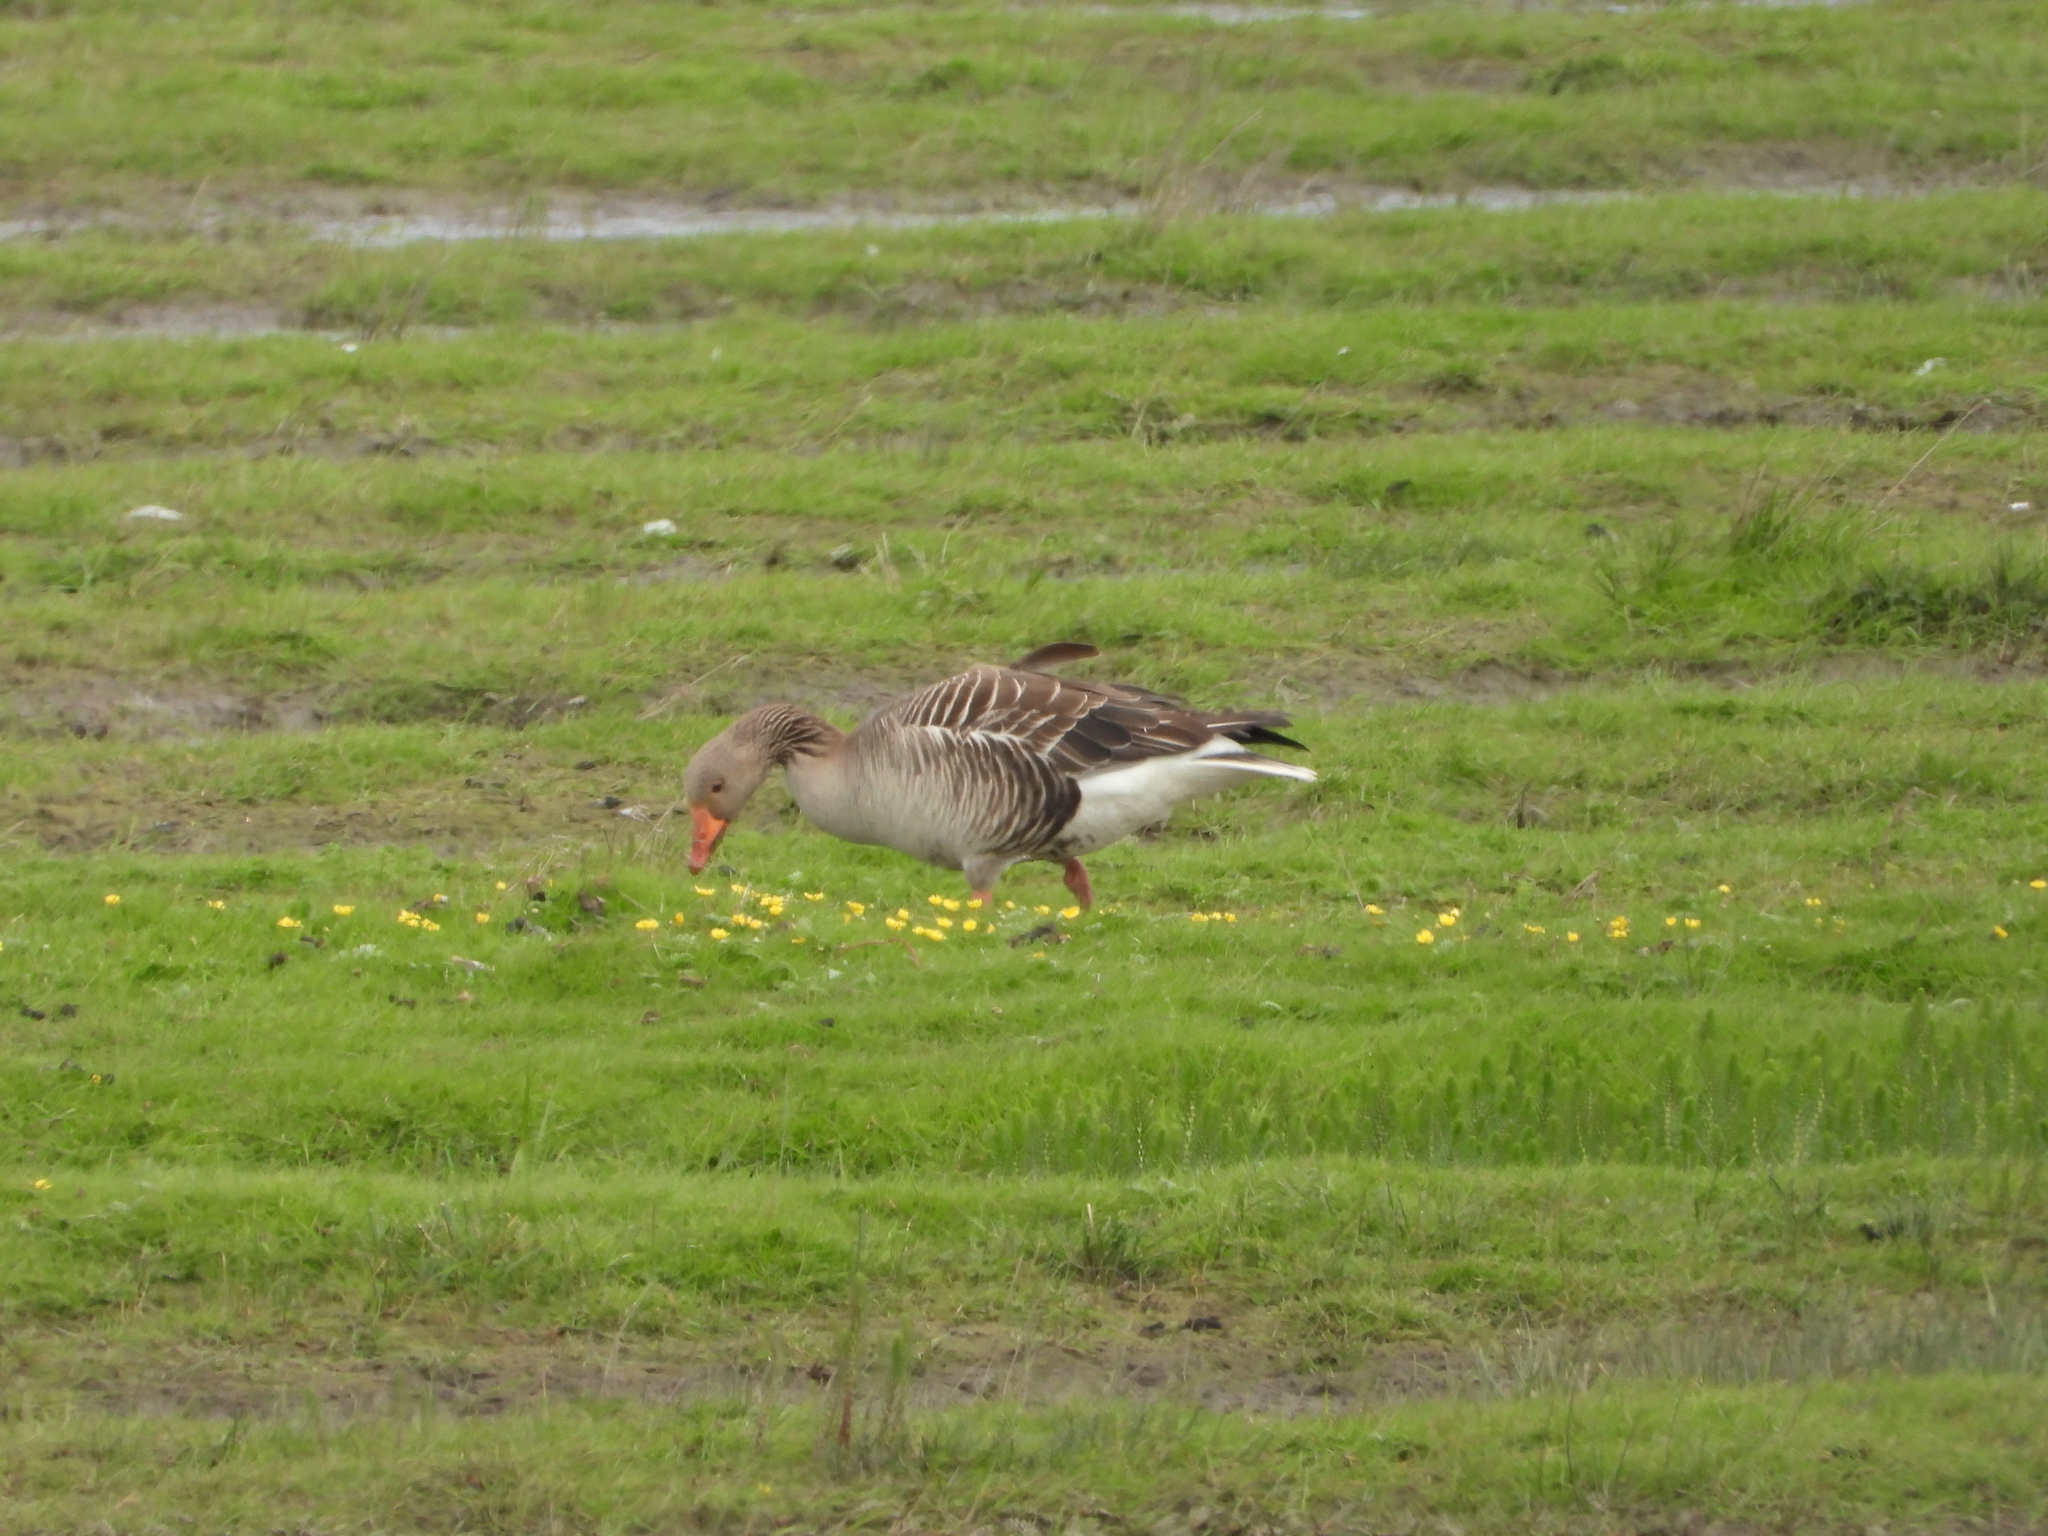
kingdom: Animalia
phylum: Chordata
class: Aves
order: Anseriformes
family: Anatidae
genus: Anser
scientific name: Anser anser
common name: Greylag goose
